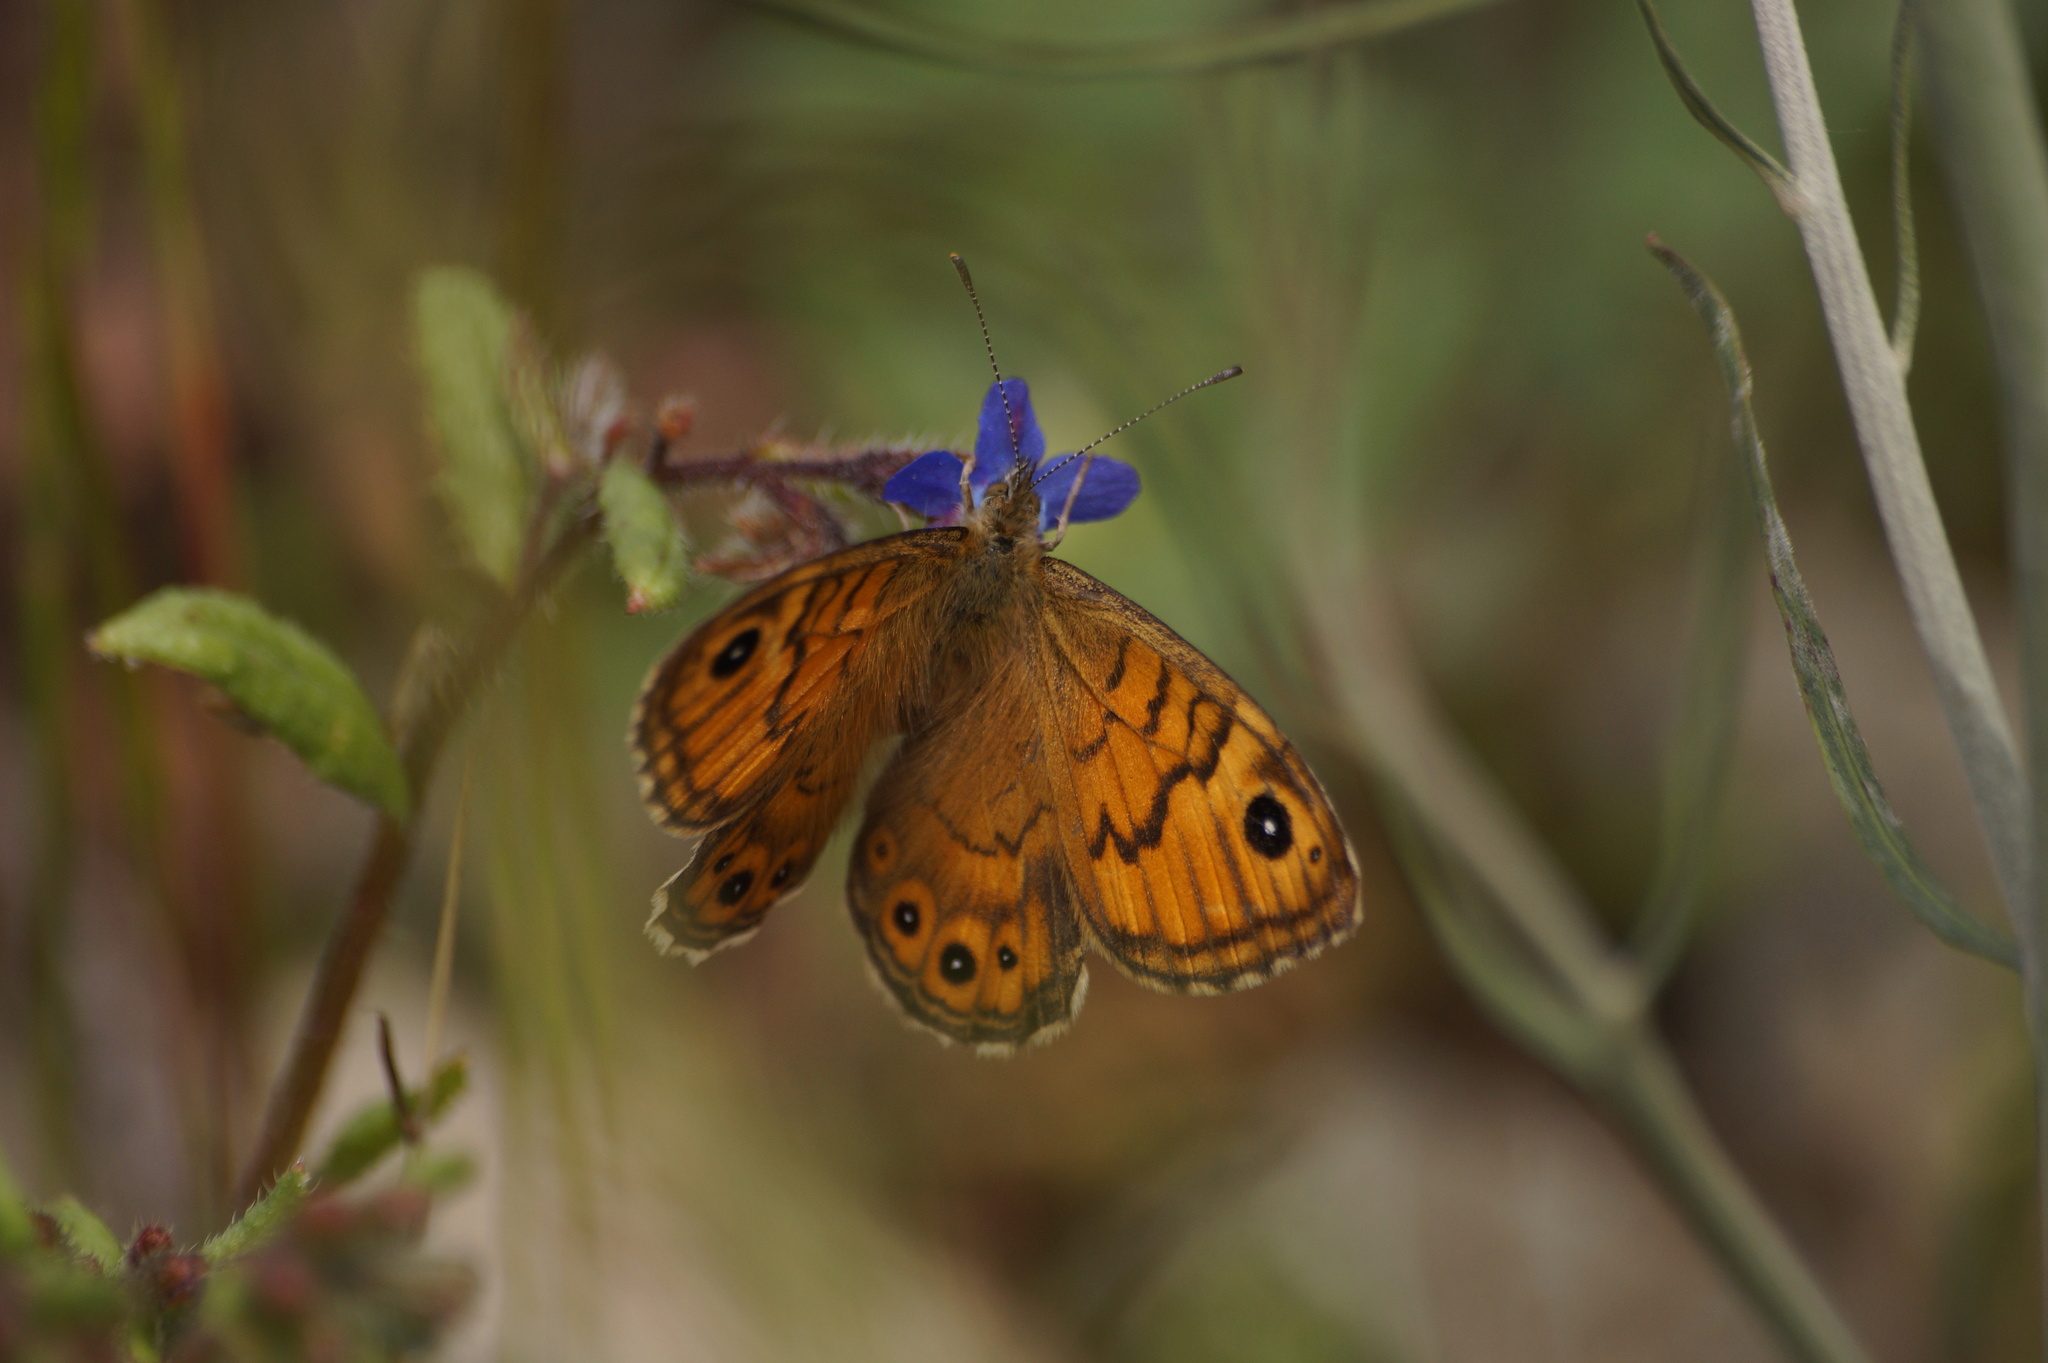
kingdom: Animalia
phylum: Arthropoda
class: Insecta
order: Lepidoptera
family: Nymphalidae
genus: Pararge
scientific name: Pararge Lasiommata megera
